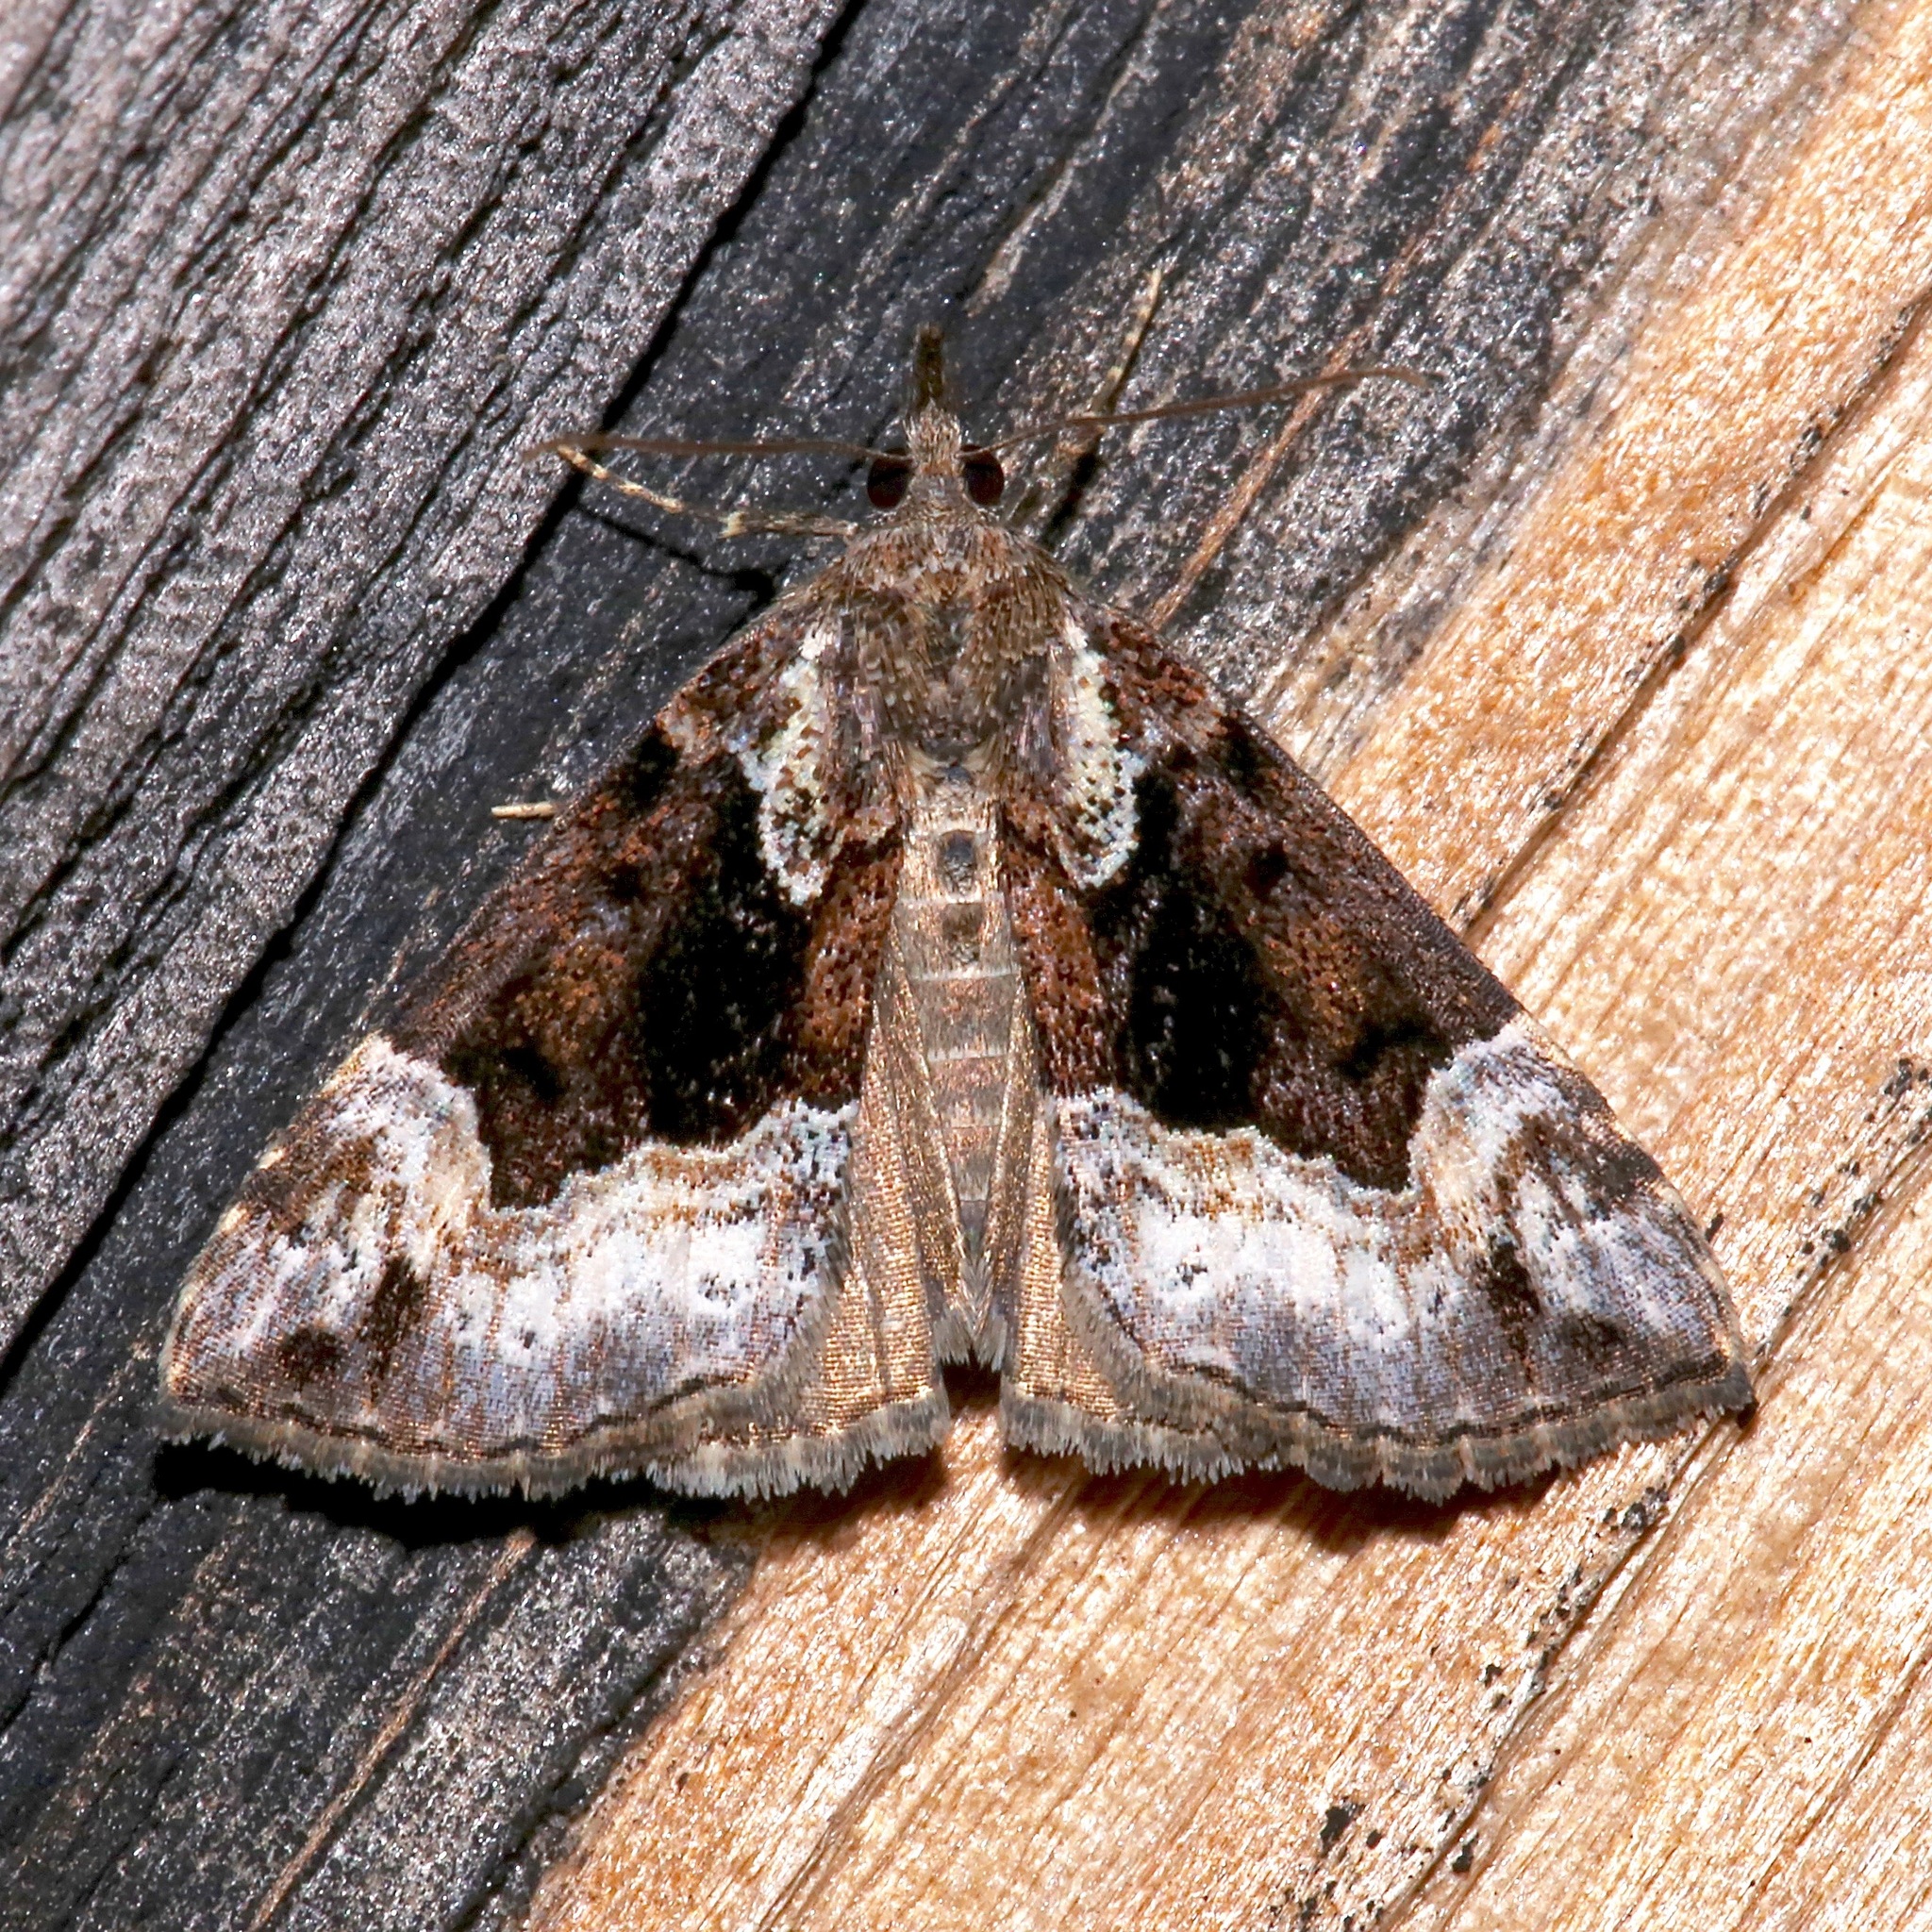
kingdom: Animalia
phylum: Arthropoda
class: Insecta
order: Lepidoptera
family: Erebidae
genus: Hypena
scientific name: Hypena palparia
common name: Mottled bomolocha moth
